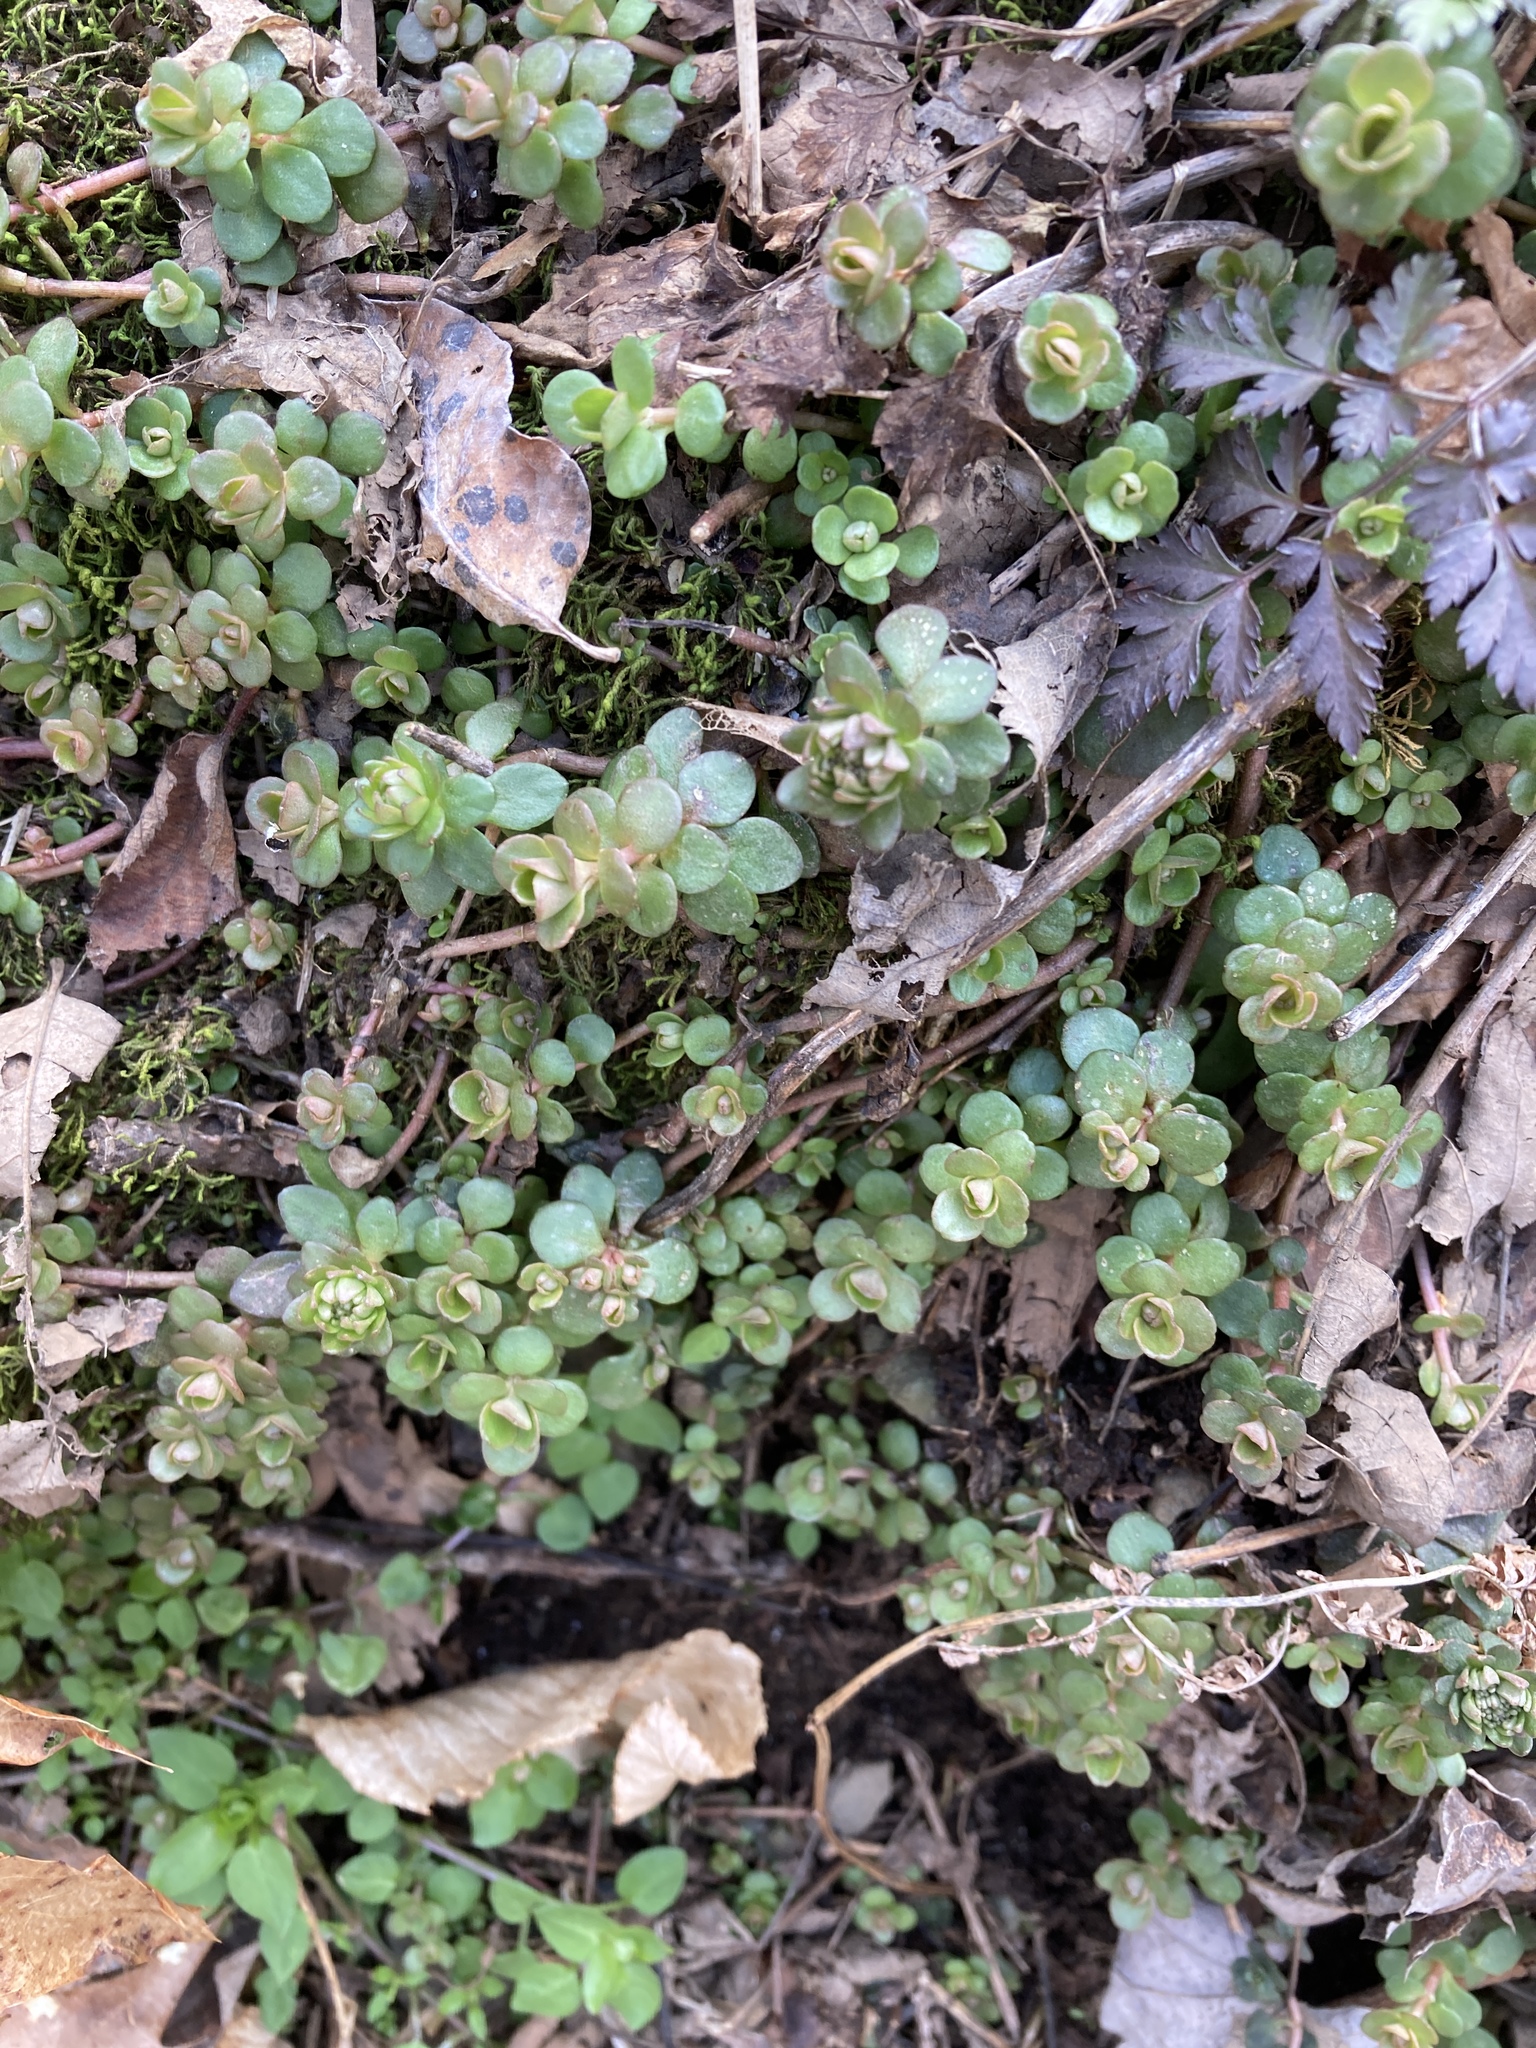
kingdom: Plantae
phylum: Tracheophyta
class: Magnoliopsida
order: Saxifragales
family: Crassulaceae
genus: Sedum
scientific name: Sedum ternatum
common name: Wild stonecrop
